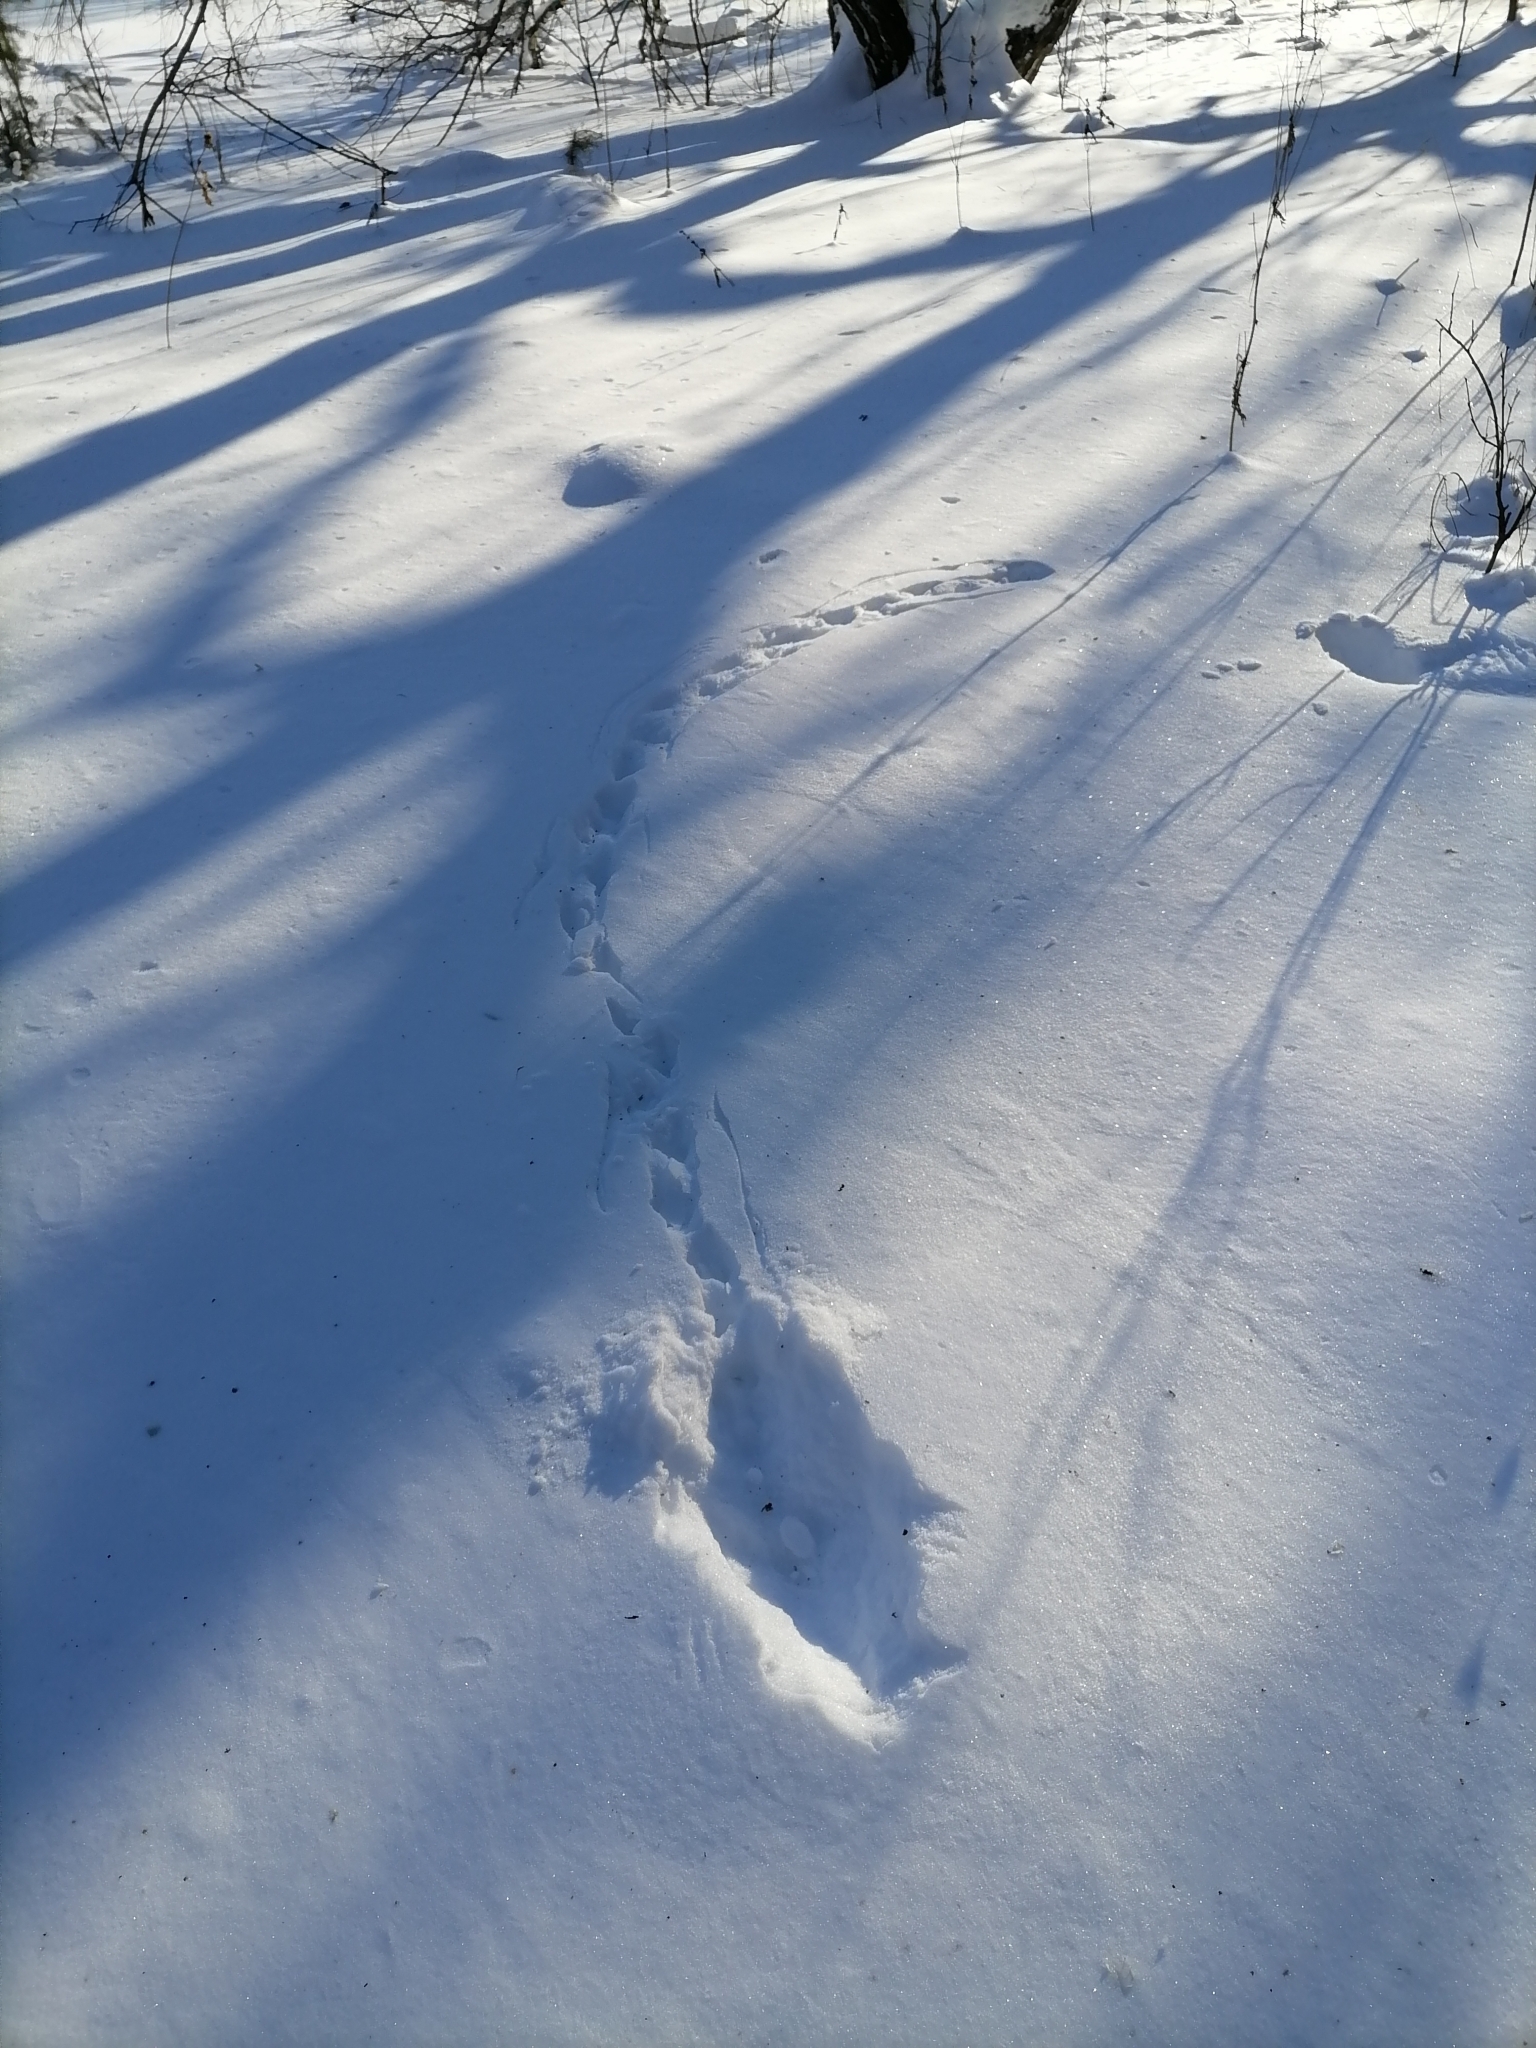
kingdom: Animalia
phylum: Chordata
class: Aves
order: Galliformes
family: Phasianidae
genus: Lyrurus
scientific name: Lyrurus tetrix
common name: Black grouse
